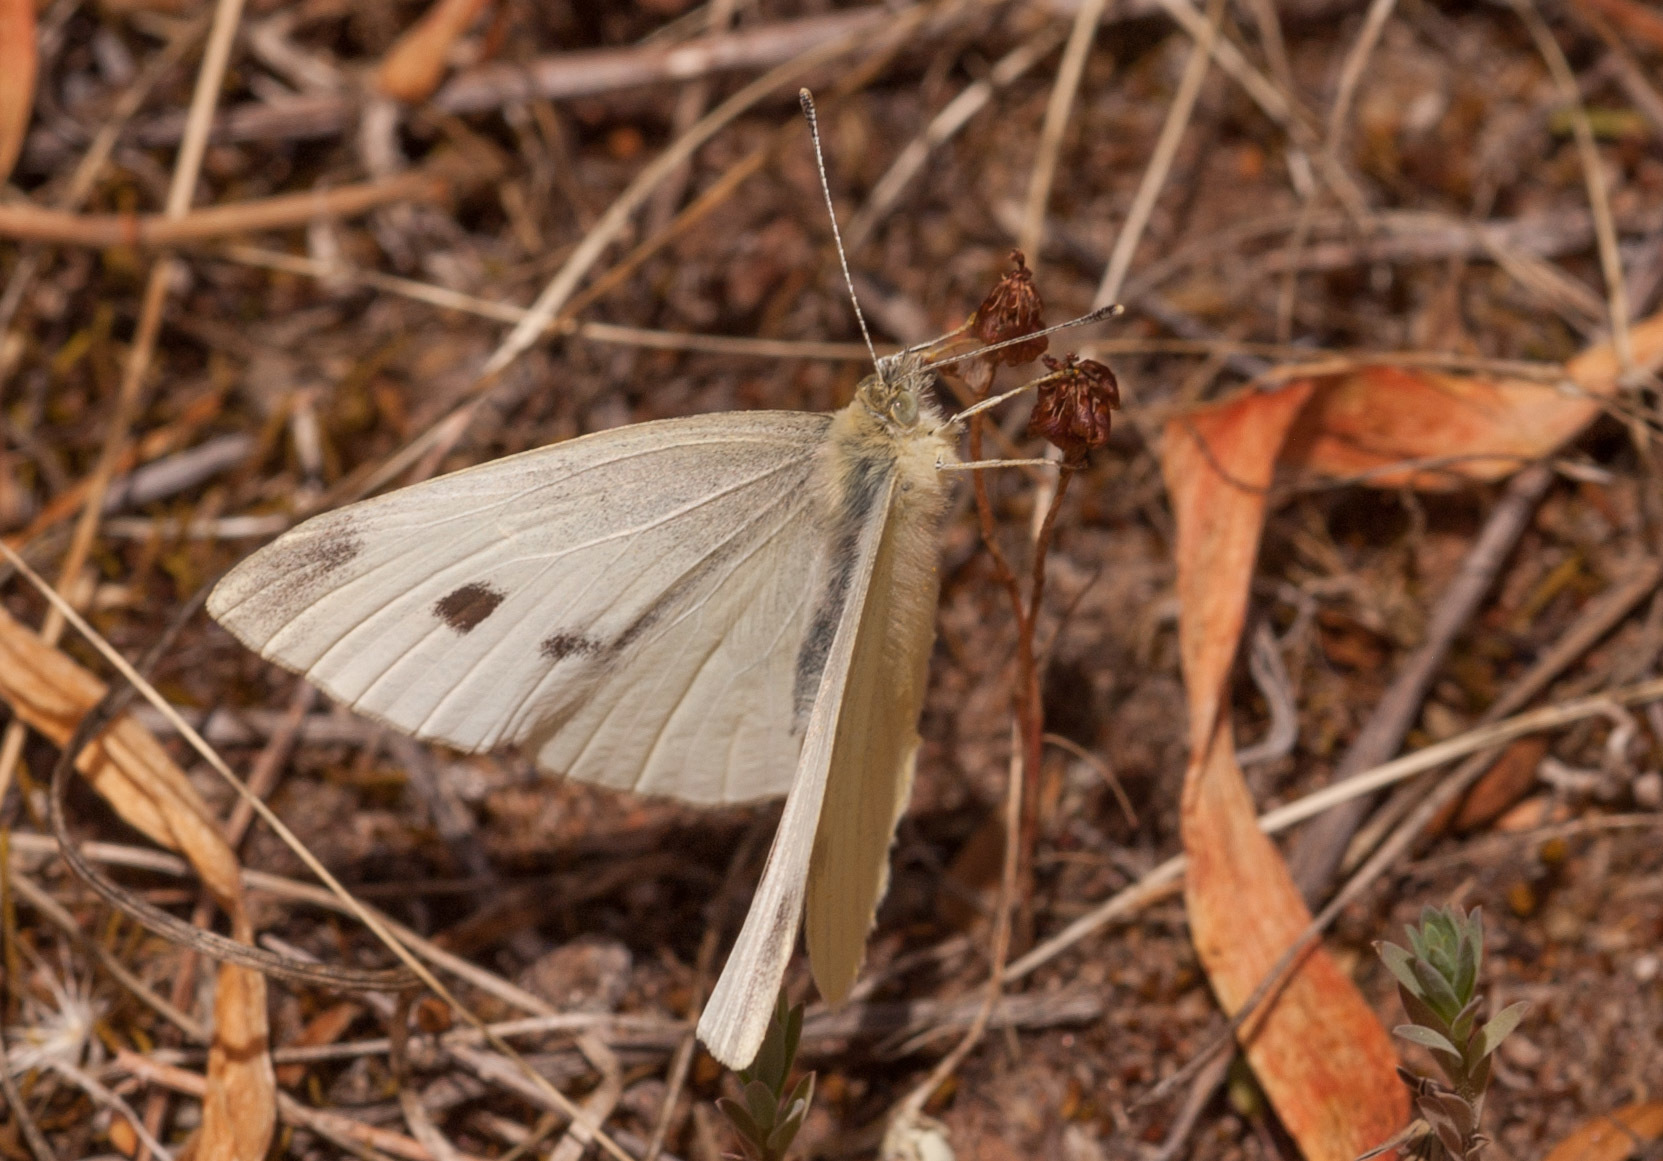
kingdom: Animalia
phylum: Arthropoda
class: Insecta
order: Lepidoptera
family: Pieridae
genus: Pieris
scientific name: Pieris rapae
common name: Small white
